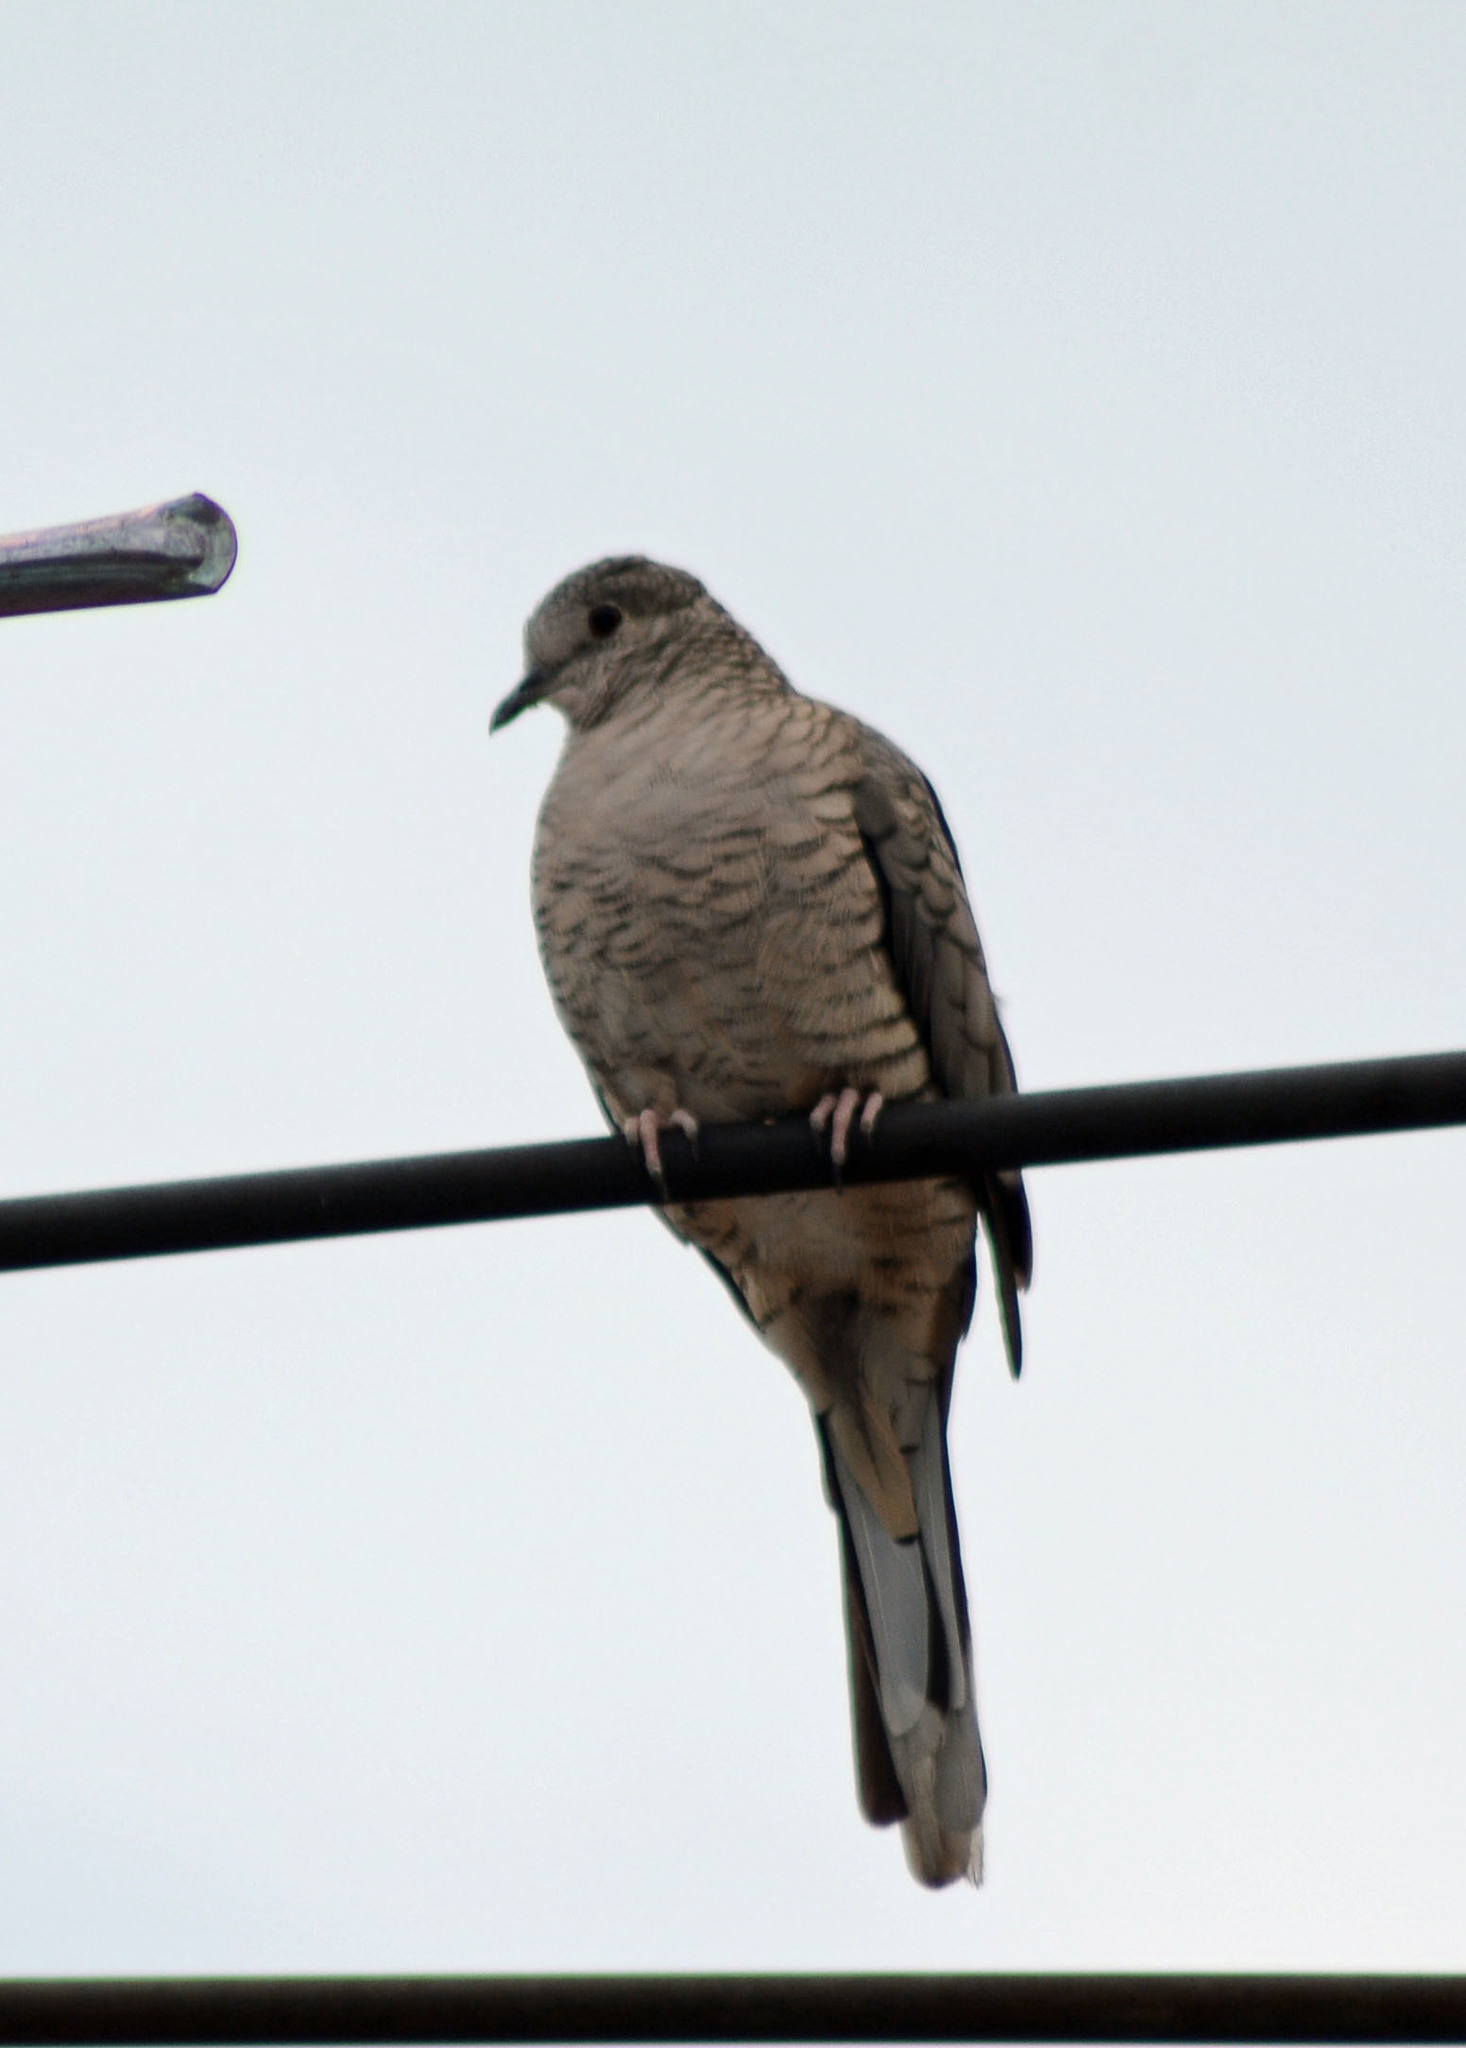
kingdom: Animalia
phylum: Chordata
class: Aves
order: Columbiformes
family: Columbidae
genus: Columbina
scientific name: Columbina inca
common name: Inca dove
